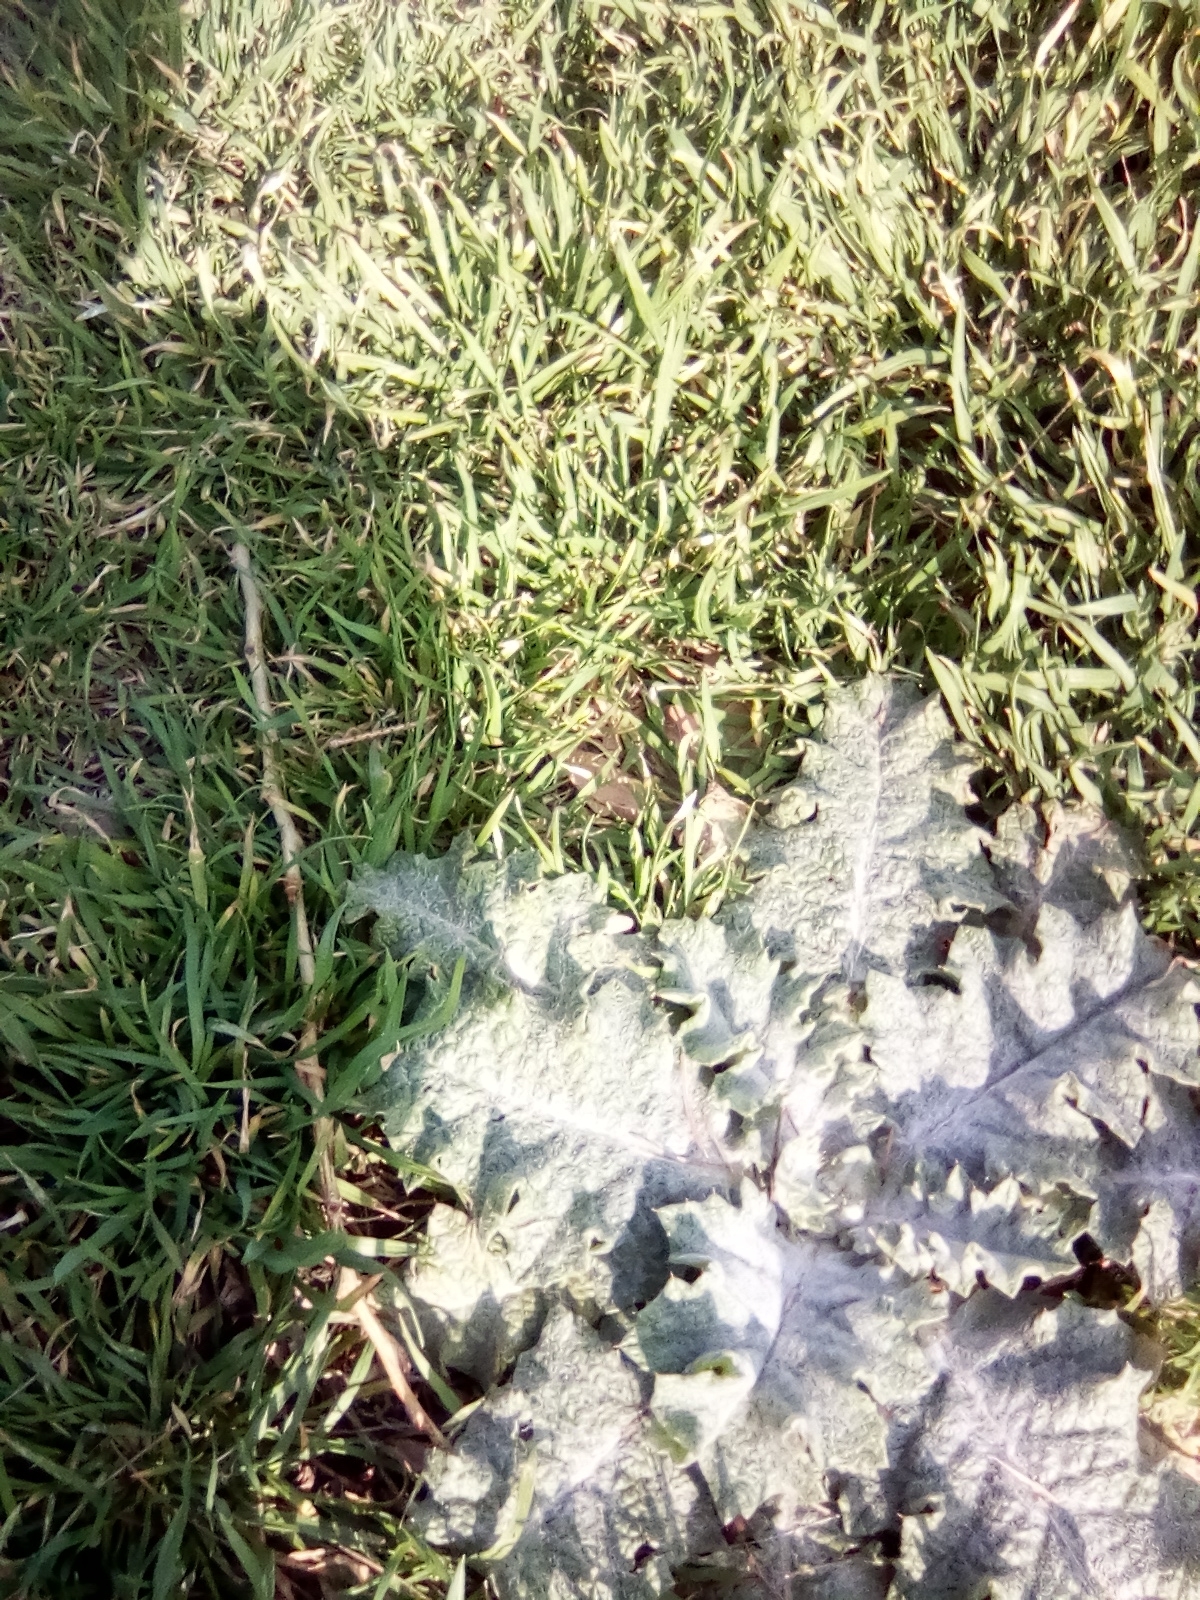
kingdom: Plantae
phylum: Tracheophyta
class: Magnoliopsida
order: Asterales
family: Asteraceae
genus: Onopordum
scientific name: Onopordum acanthium
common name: Scotch thistle
